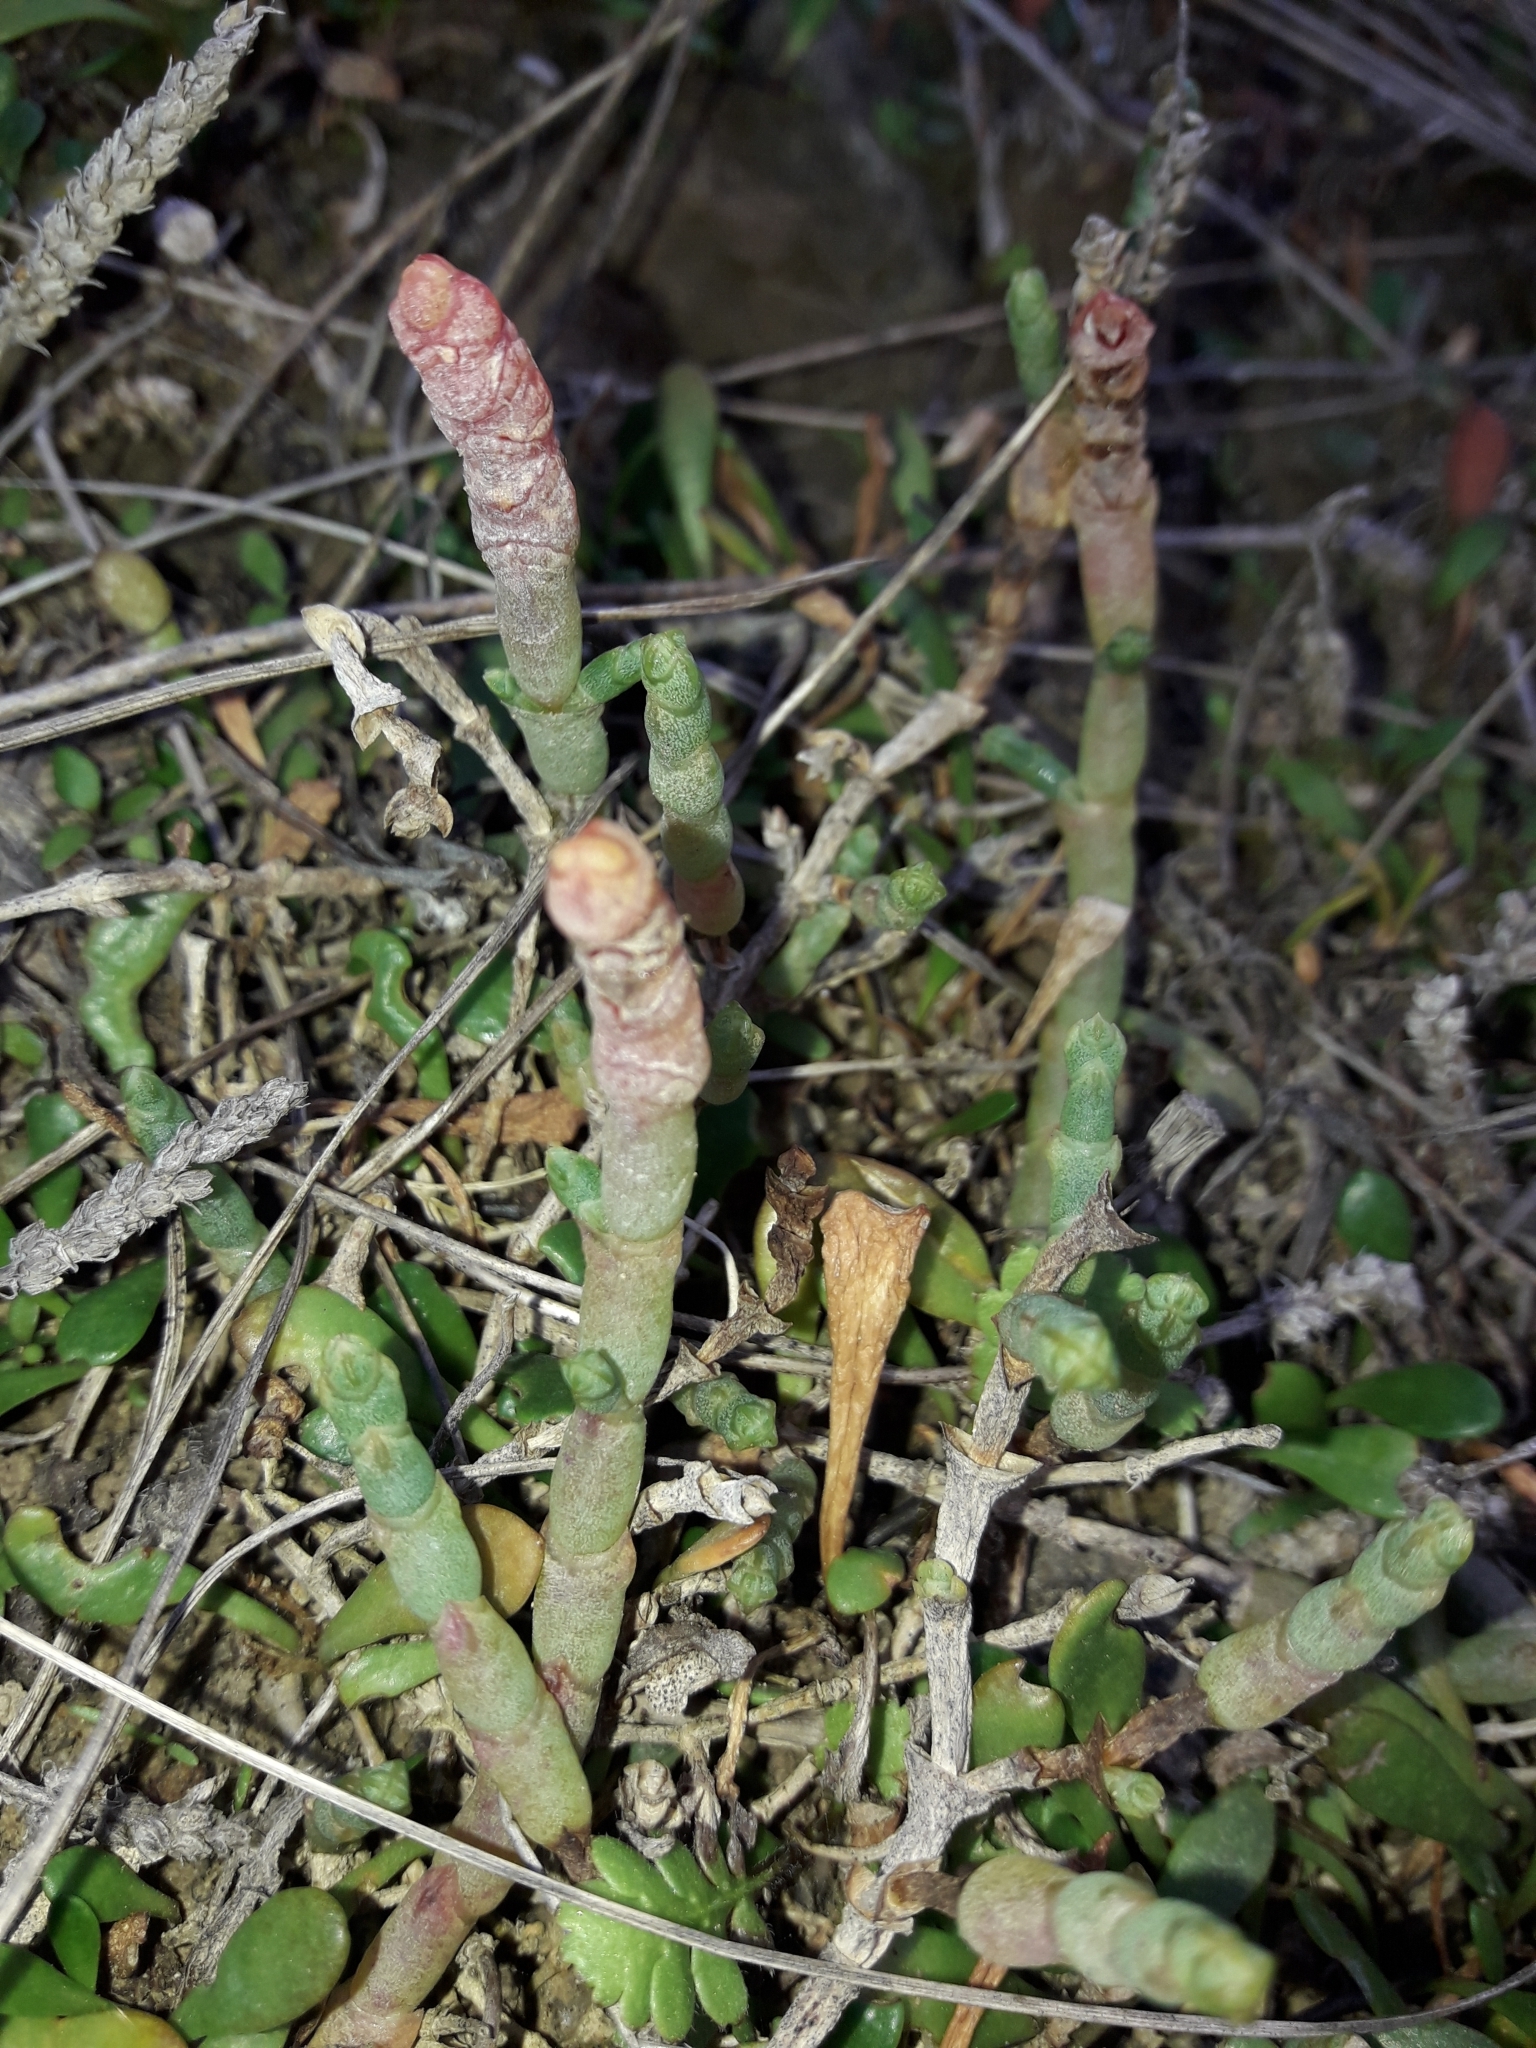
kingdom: Plantae
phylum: Tracheophyta
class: Magnoliopsida
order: Caryophyllales
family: Amaranthaceae
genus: Salicornia
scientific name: Salicornia quinqueflora
